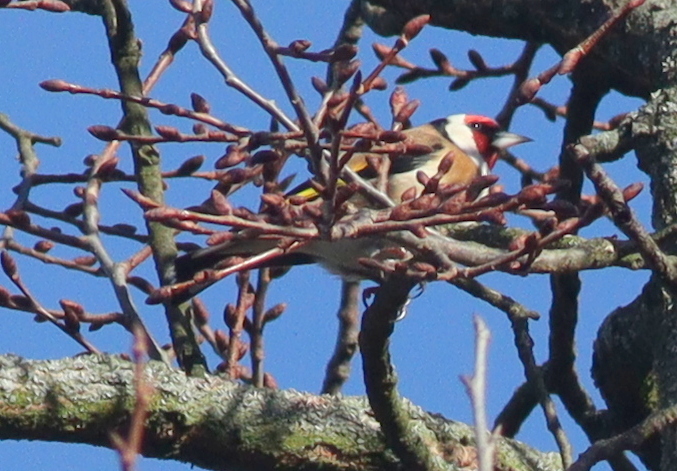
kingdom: Animalia
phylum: Chordata
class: Aves
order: Passeriformes
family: Fringillidae
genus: Carduelis
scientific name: Carduelis carduelis
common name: European goldfinch
